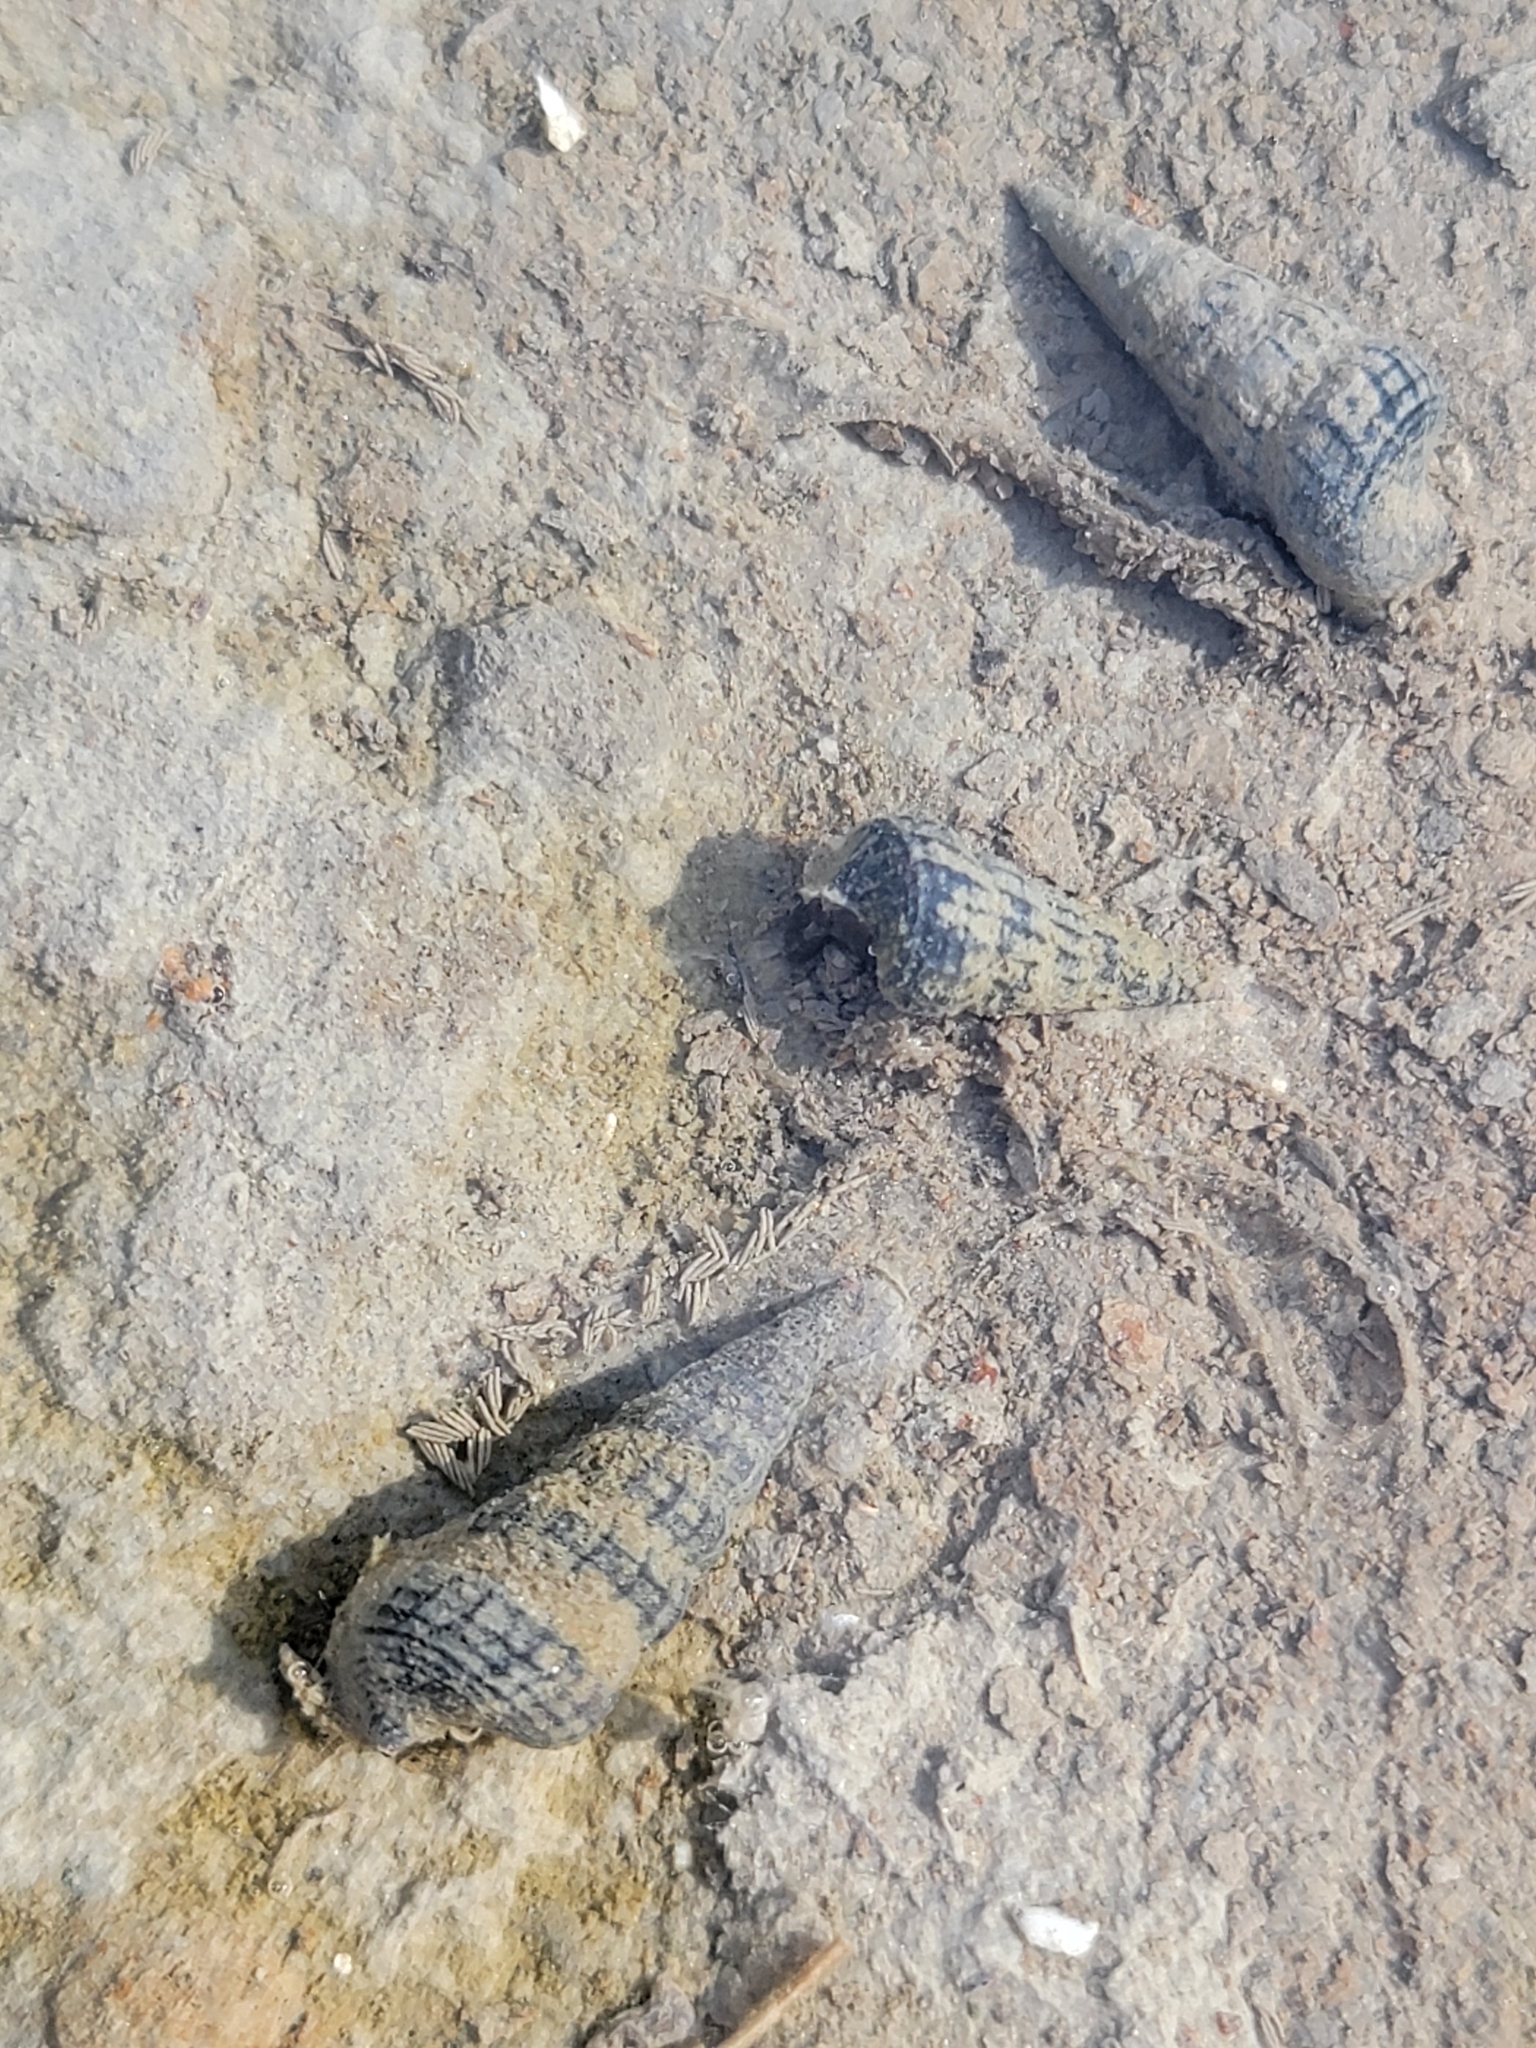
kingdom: Animalia
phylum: Mollusca
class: Gastropoda
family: Potamididae
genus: Cerithideopsis
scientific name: Cerithideopsis californica
